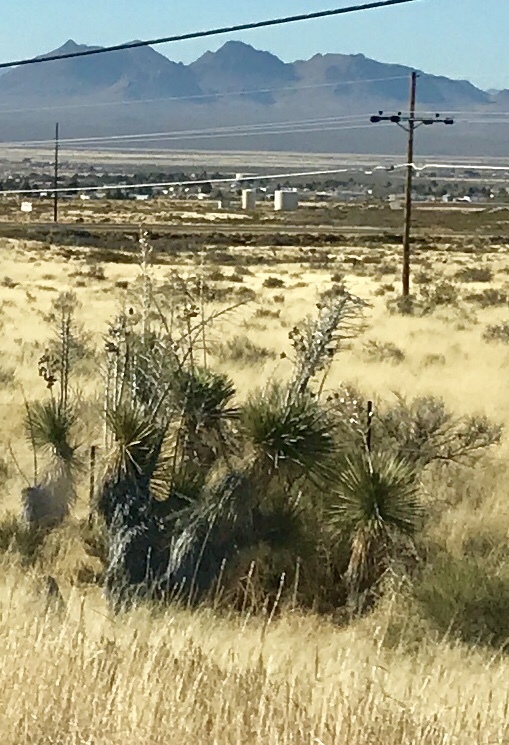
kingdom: Plantae
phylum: Tracheophyta
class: Liliopsida
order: Asparagales
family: Asparagaceae
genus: Yucca
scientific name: Yucca elata
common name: Palmella
